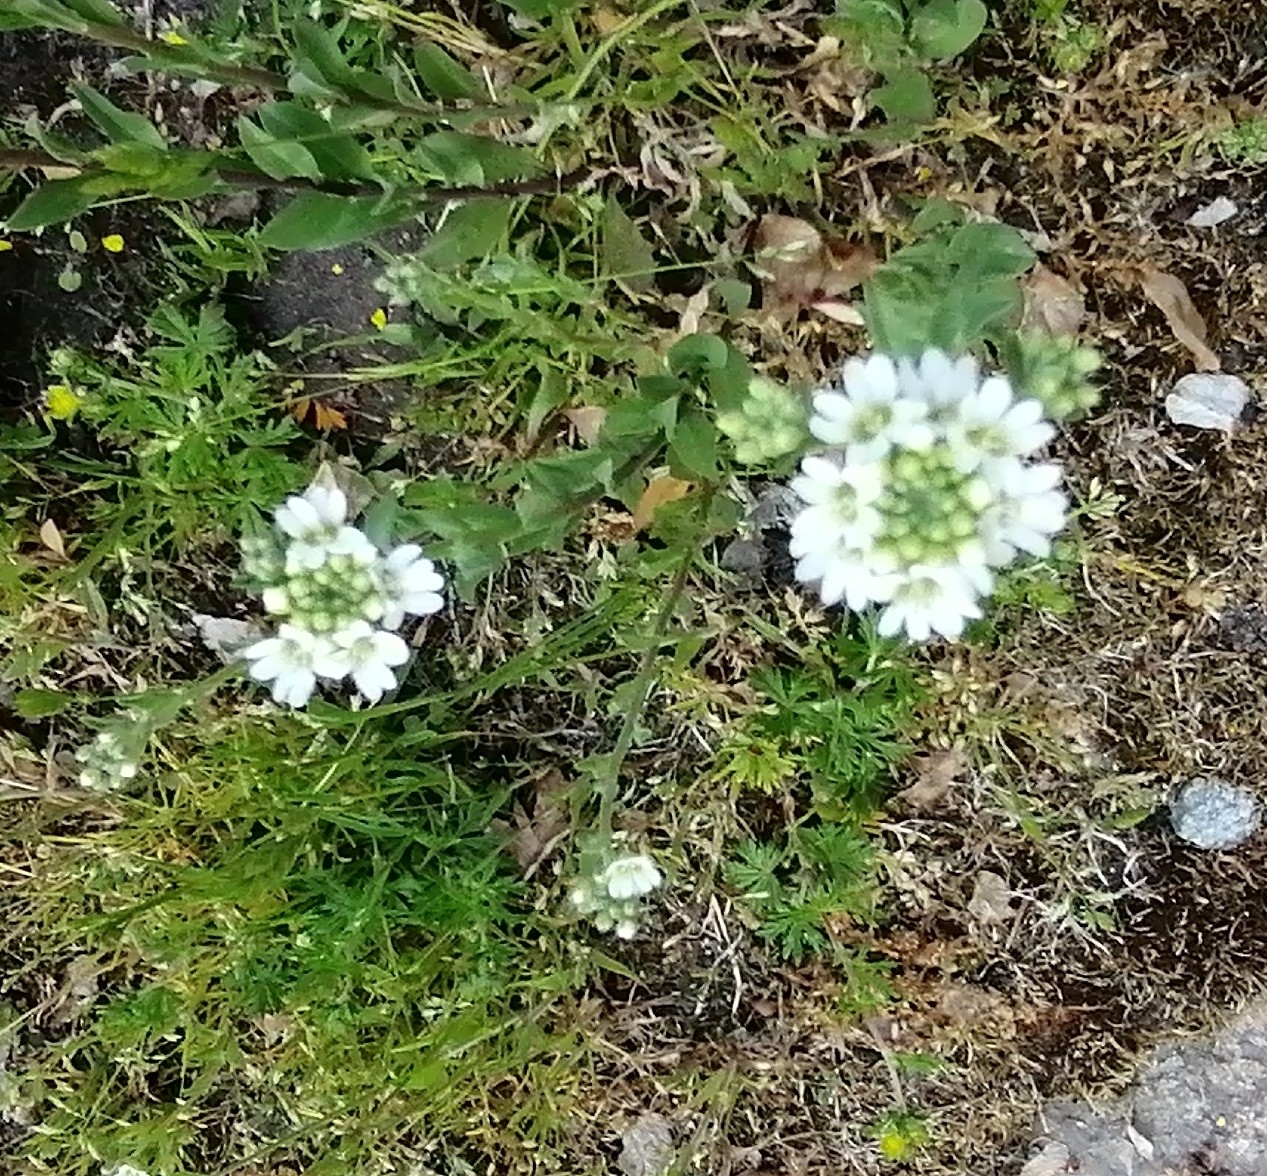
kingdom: Plantae
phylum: Tracheophyta
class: Magnoliopsida
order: Brassicales
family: Brassicaceae
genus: Berteroa
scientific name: Berteroa incana
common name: Hoary alison
